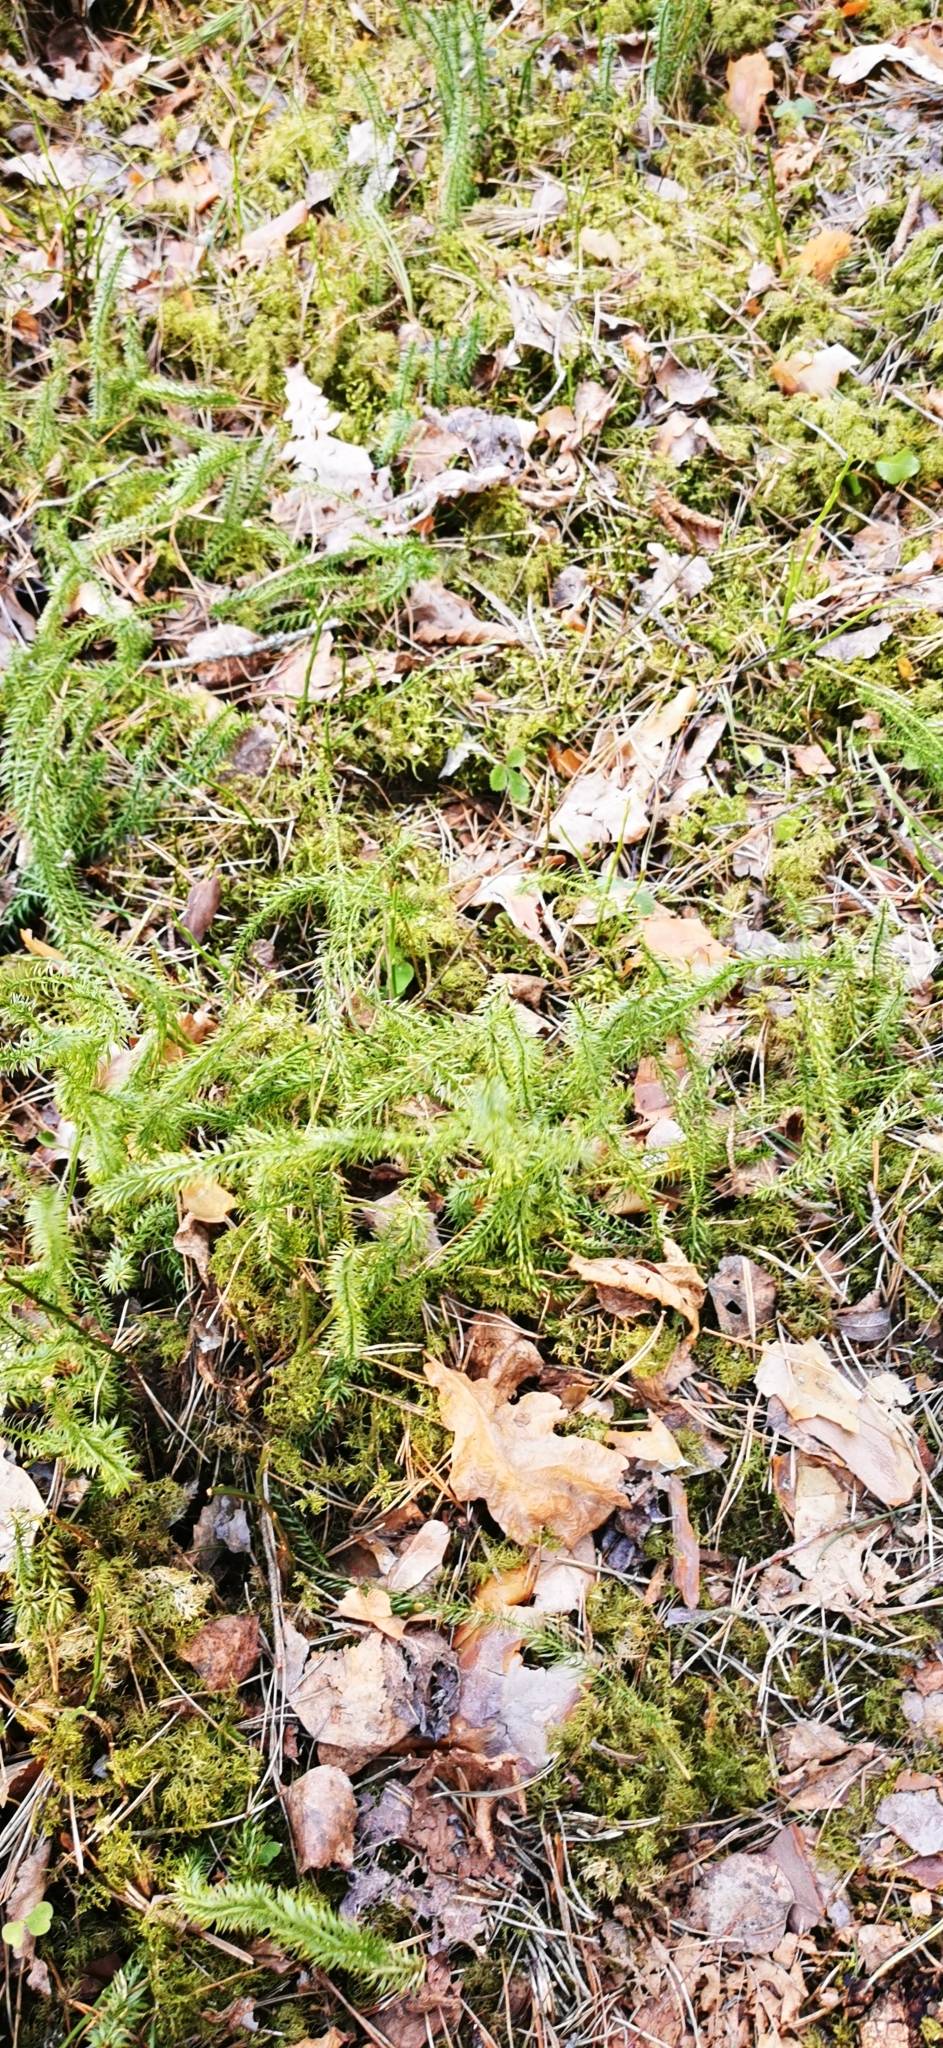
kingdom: Plantae
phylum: Tracheophyta
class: Lycopodiopsida
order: Lycopodiales
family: Lycopodiaceae
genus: Spinulum
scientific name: Spinulum annotinum
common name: Interrupted club-moss
